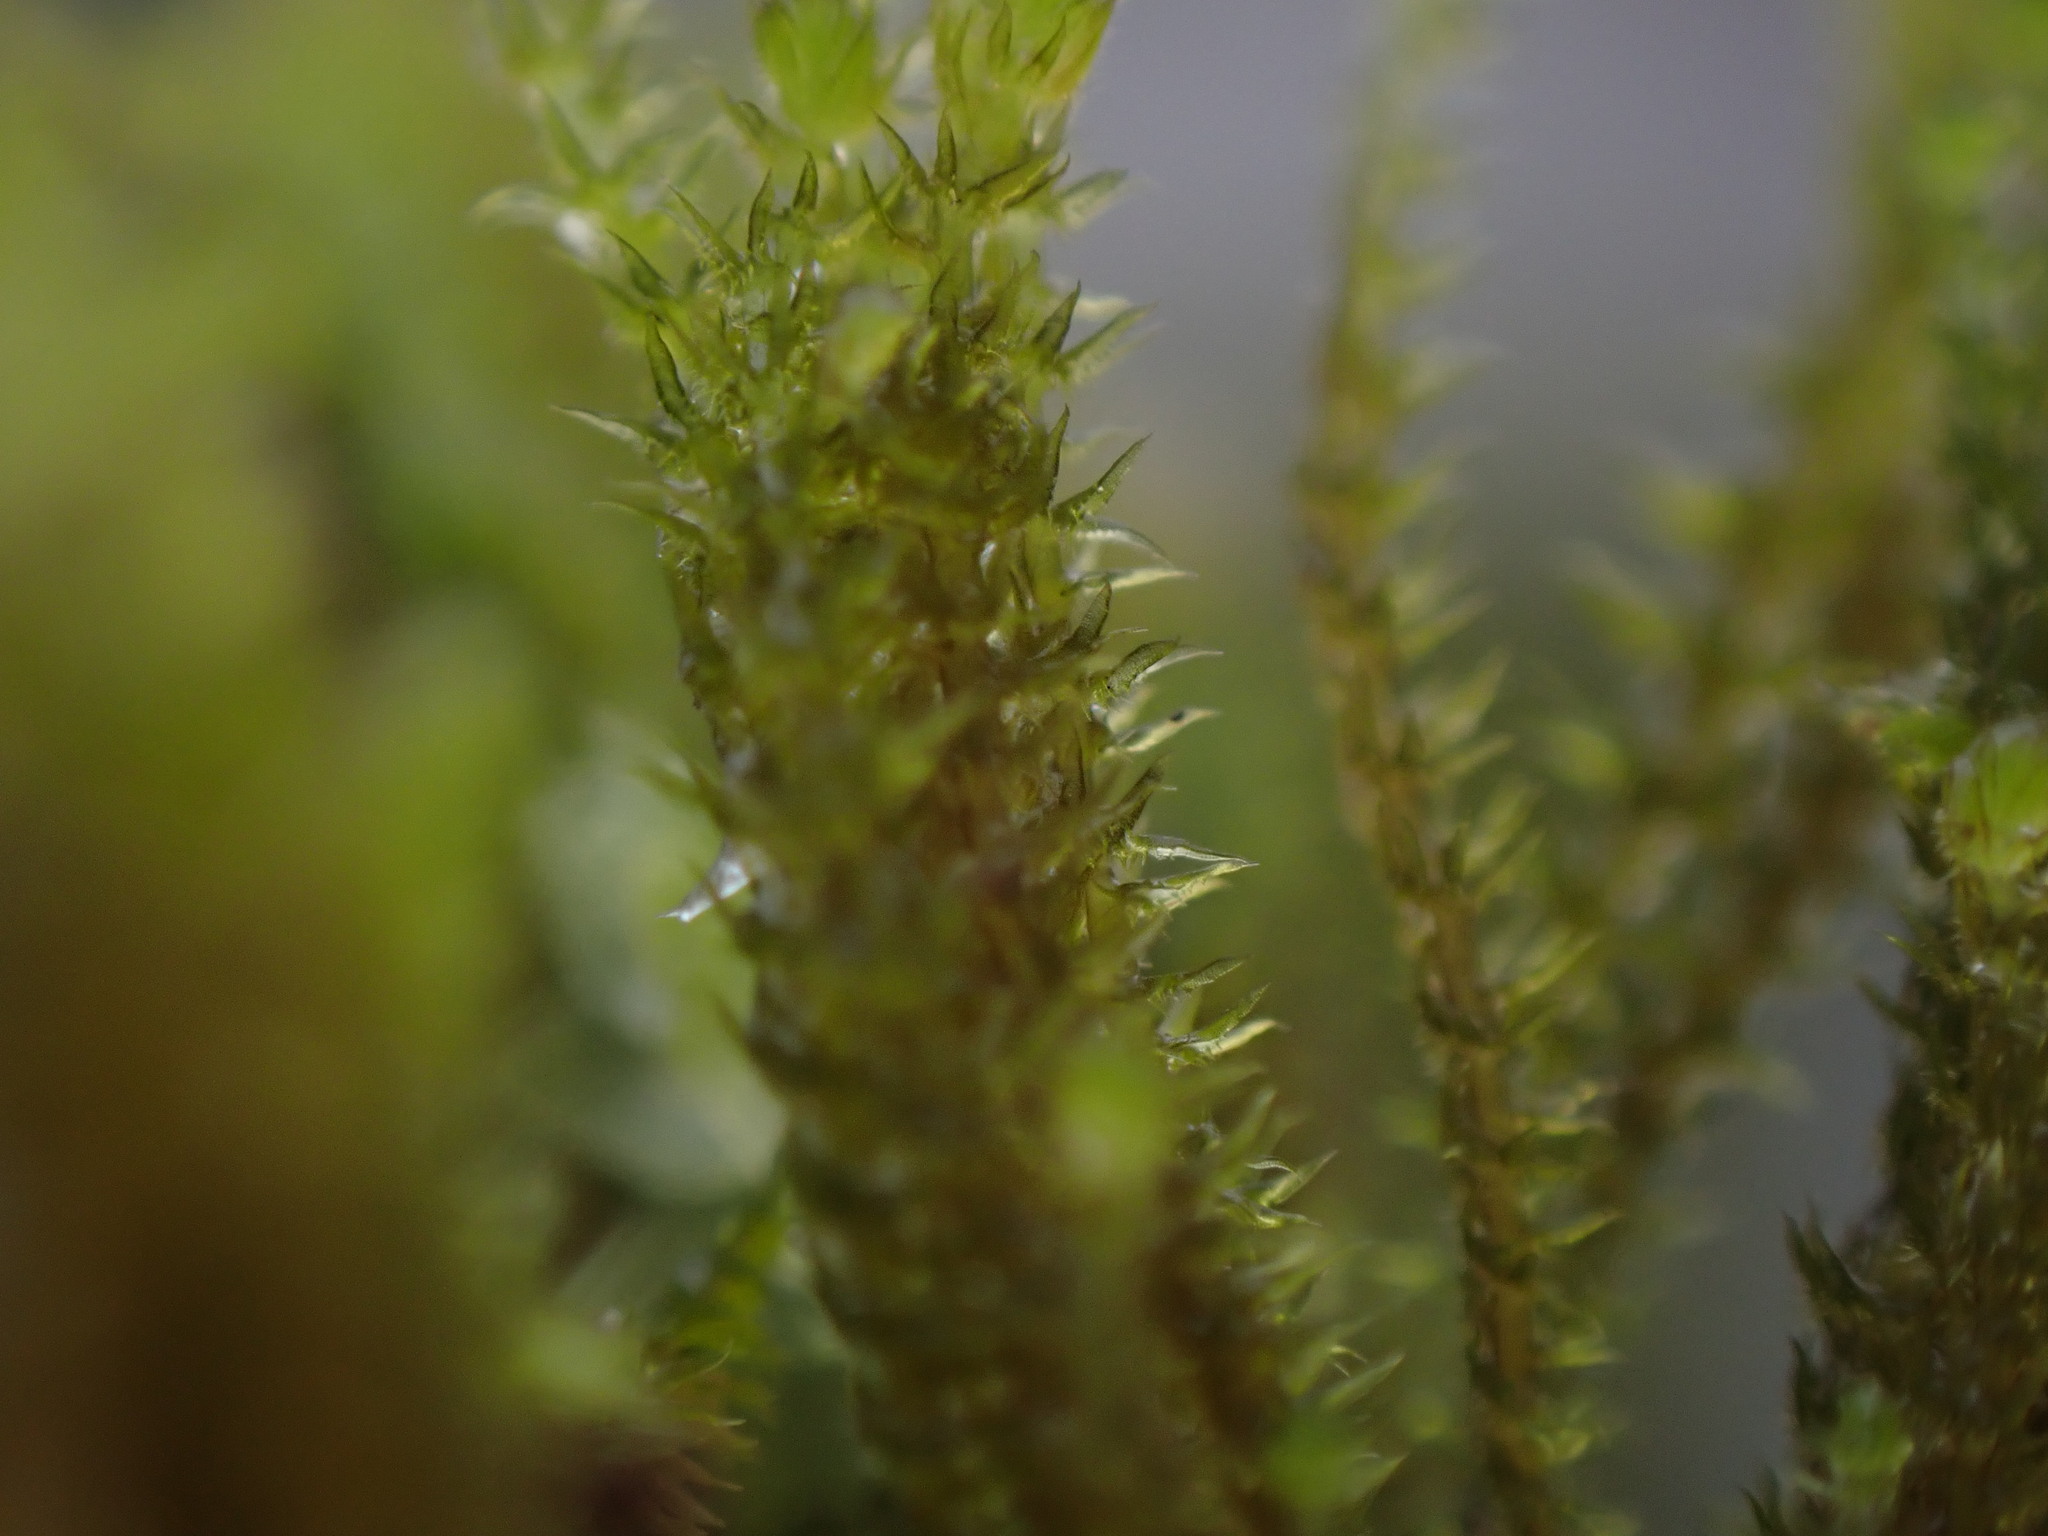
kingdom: Plantae
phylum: Marchantiophyta
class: Jungermanniopsida
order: Jungermanniales
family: Anastrophyllaceae
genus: Tetralophozia
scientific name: Tetralophozia setiformis
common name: Monster pawwort
